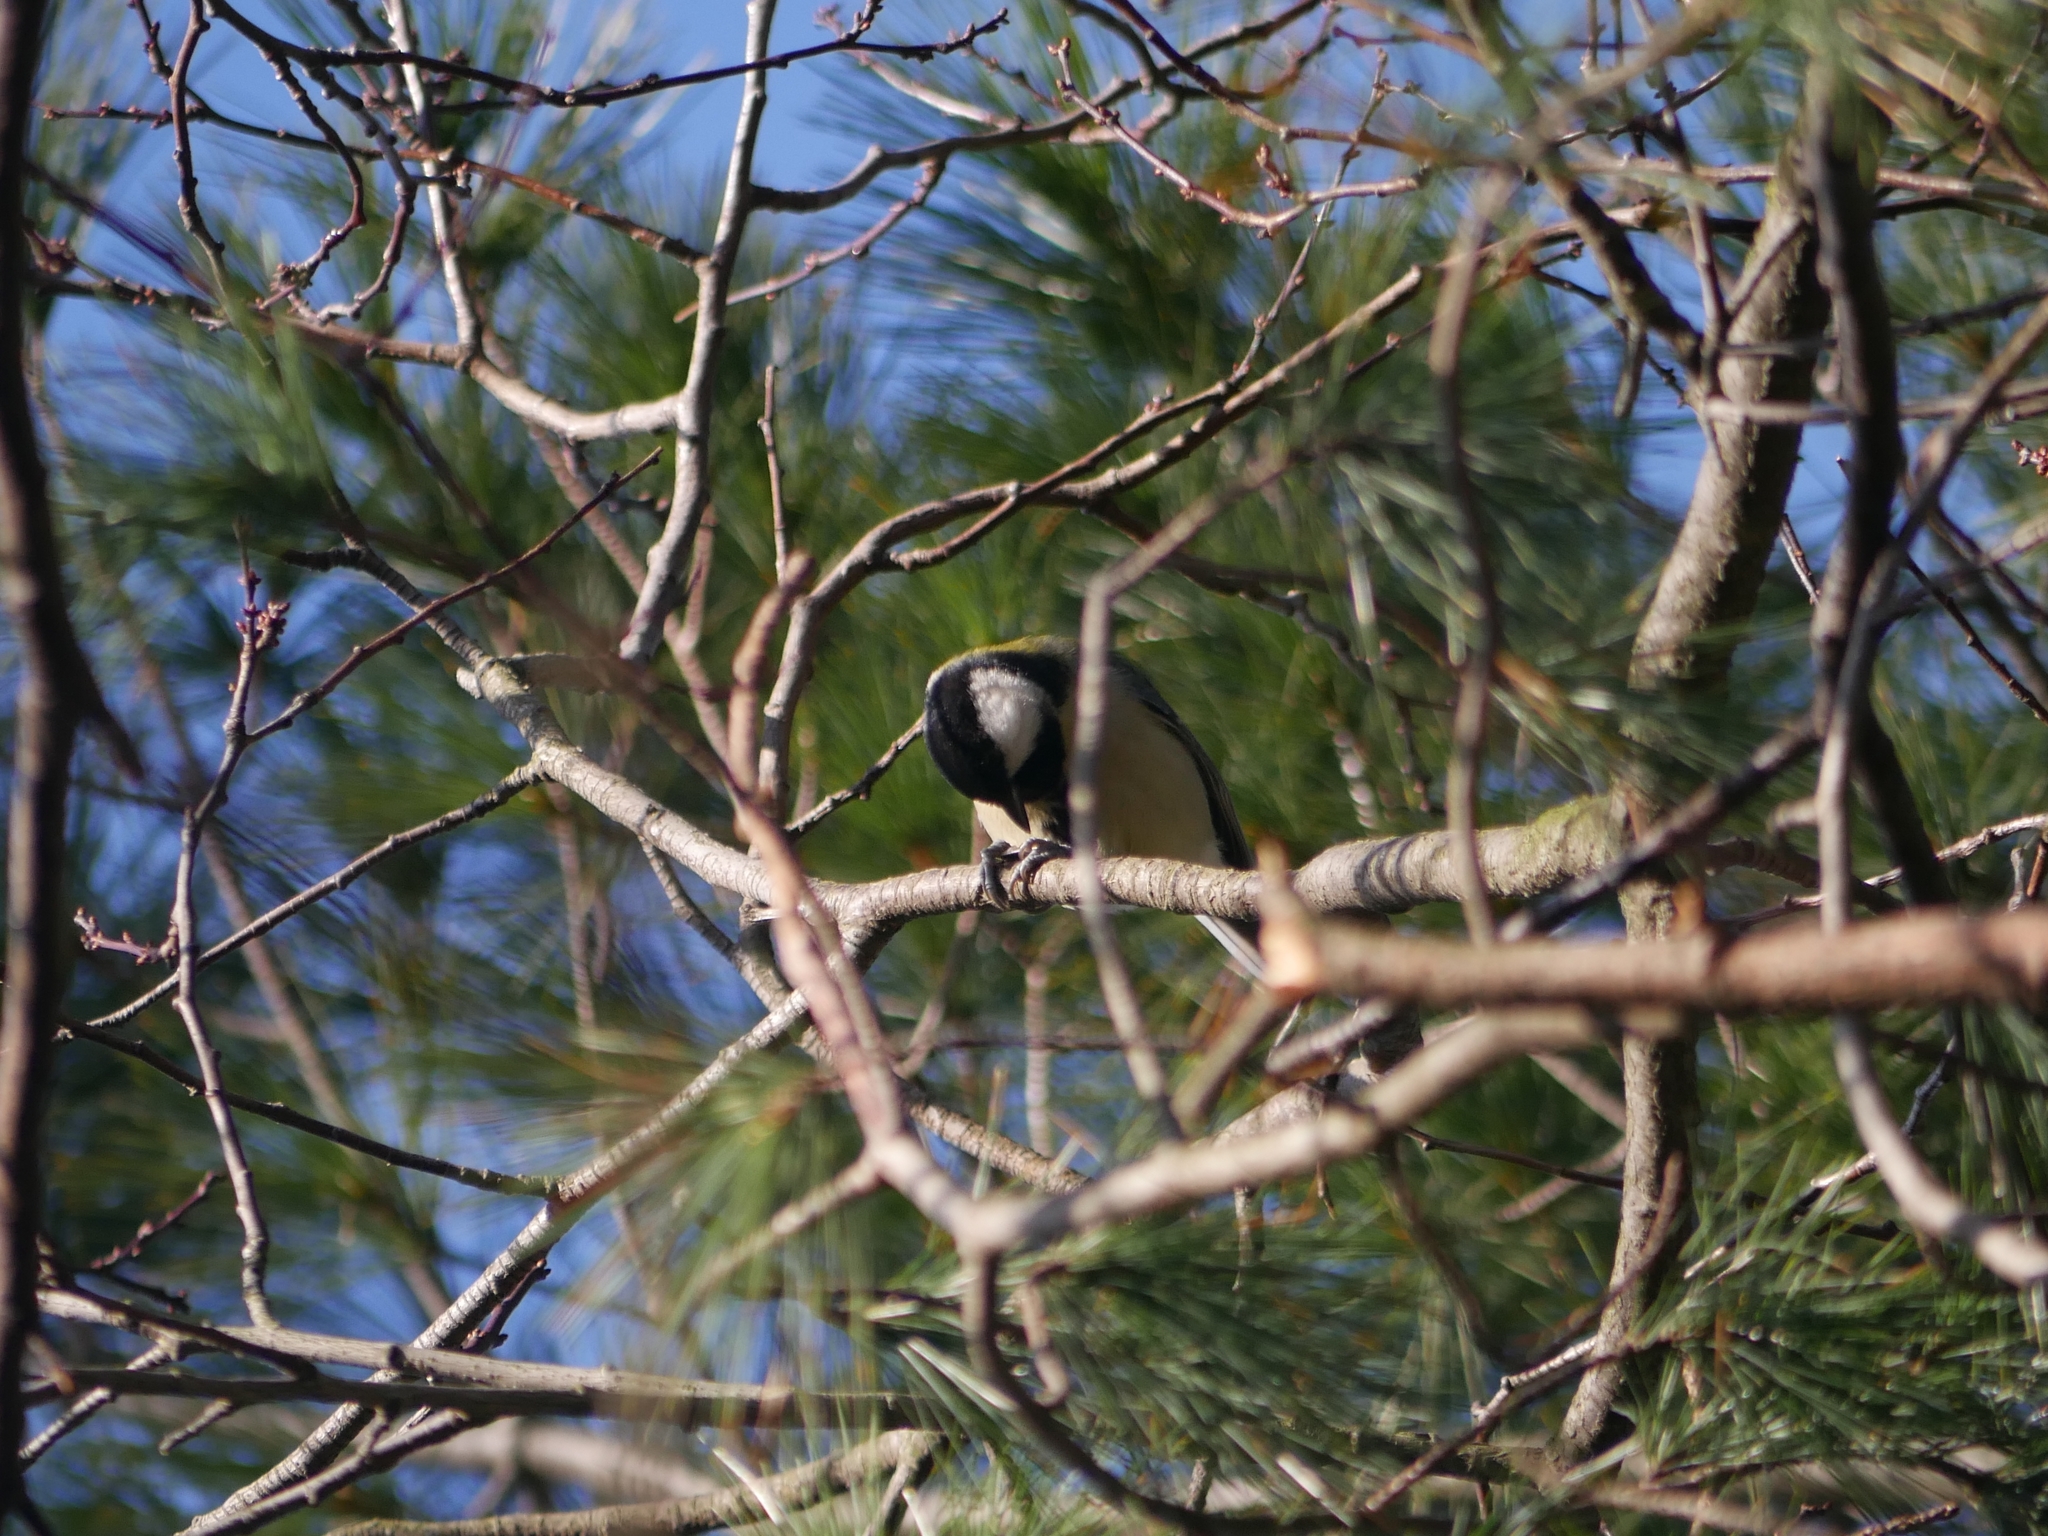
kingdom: Animalia
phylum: Chordata
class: Aves
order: Passeriformes
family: Paridae
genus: Parus
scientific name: Parus major
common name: Great tit
